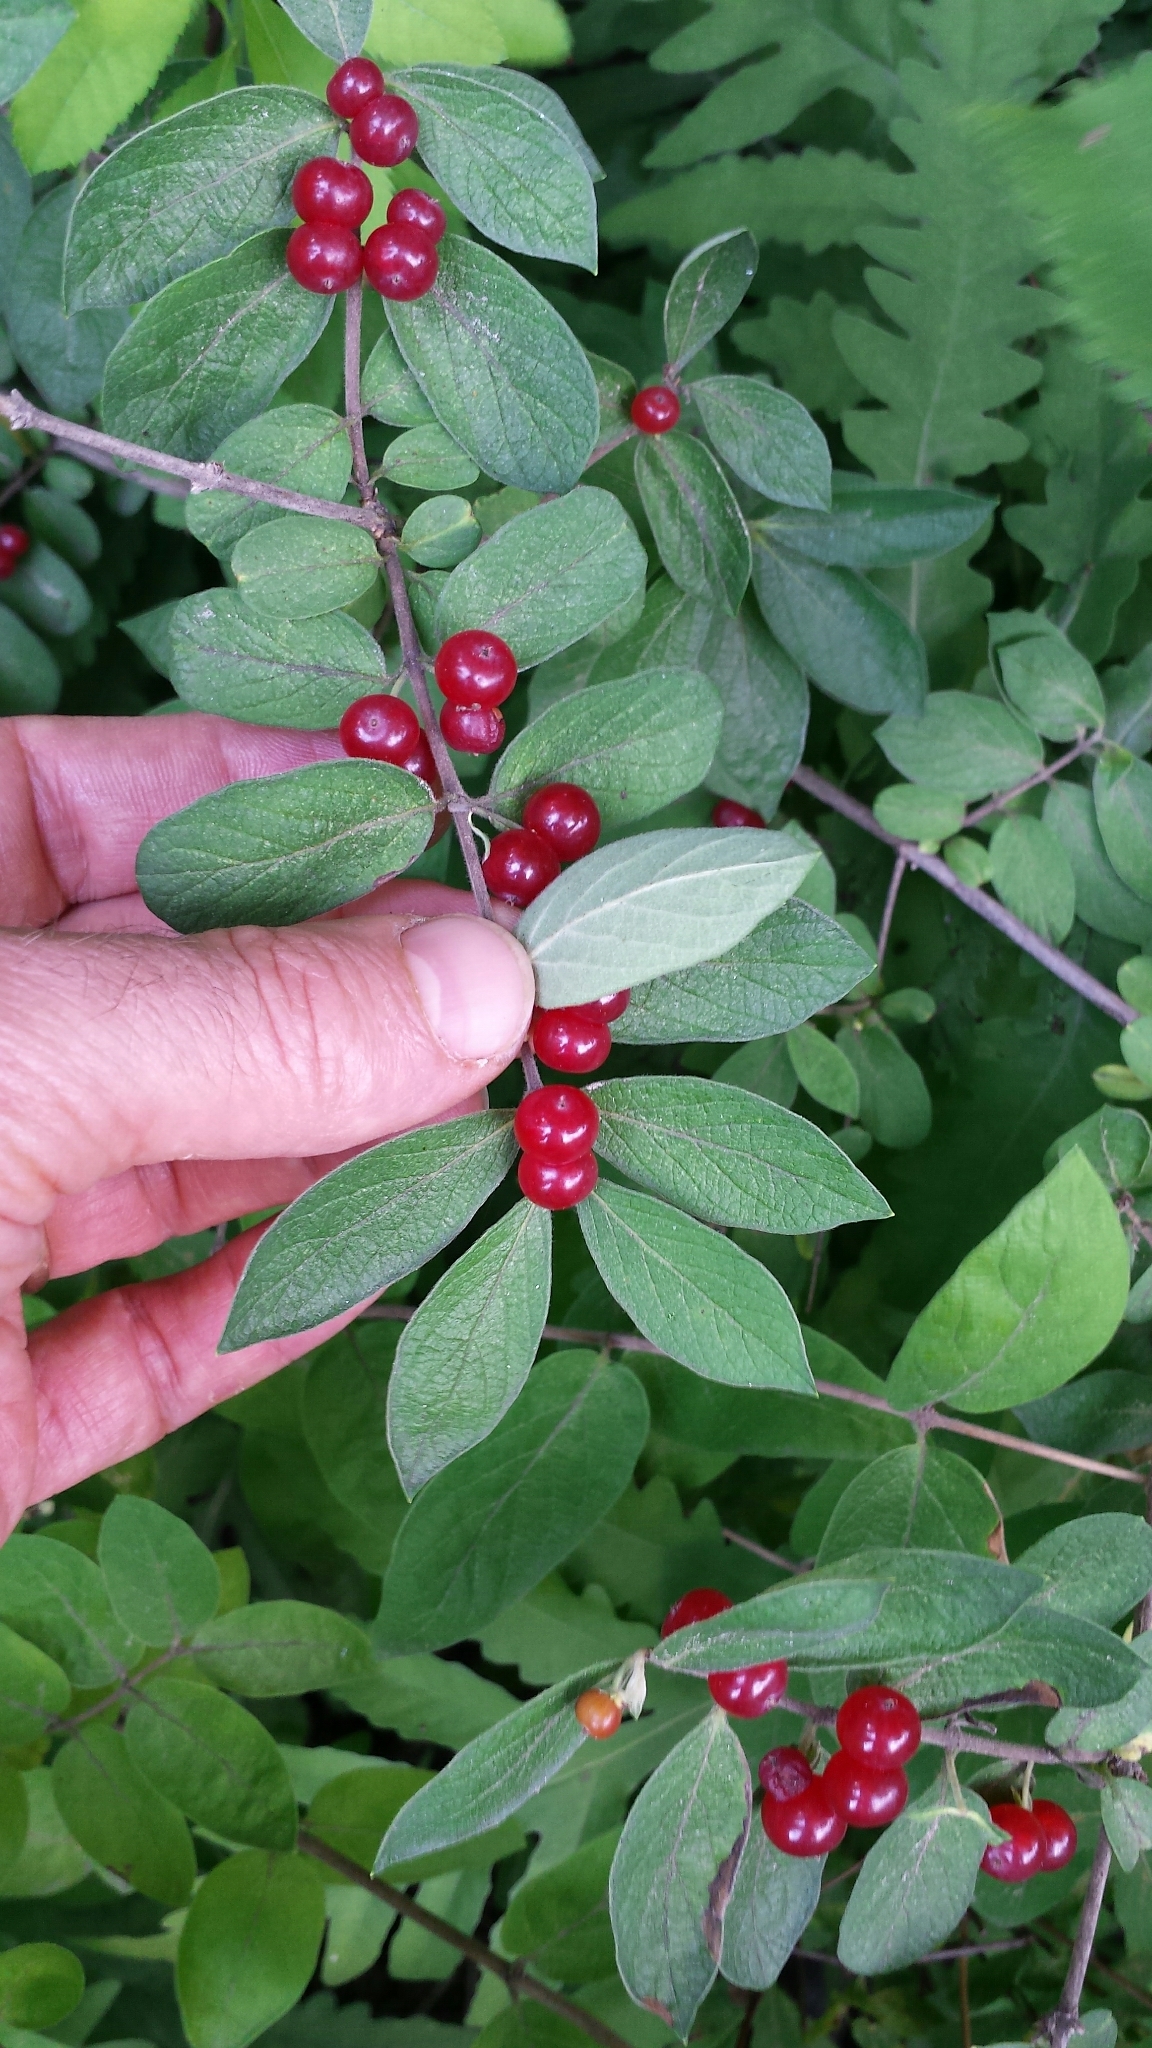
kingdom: Plantae
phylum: Tracheophyta
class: Magnoliopsida
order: Dipsacales
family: Caprifoliaceae
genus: Lonicera
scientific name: Lonicera morrowii
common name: Morrow's honeysuckle
